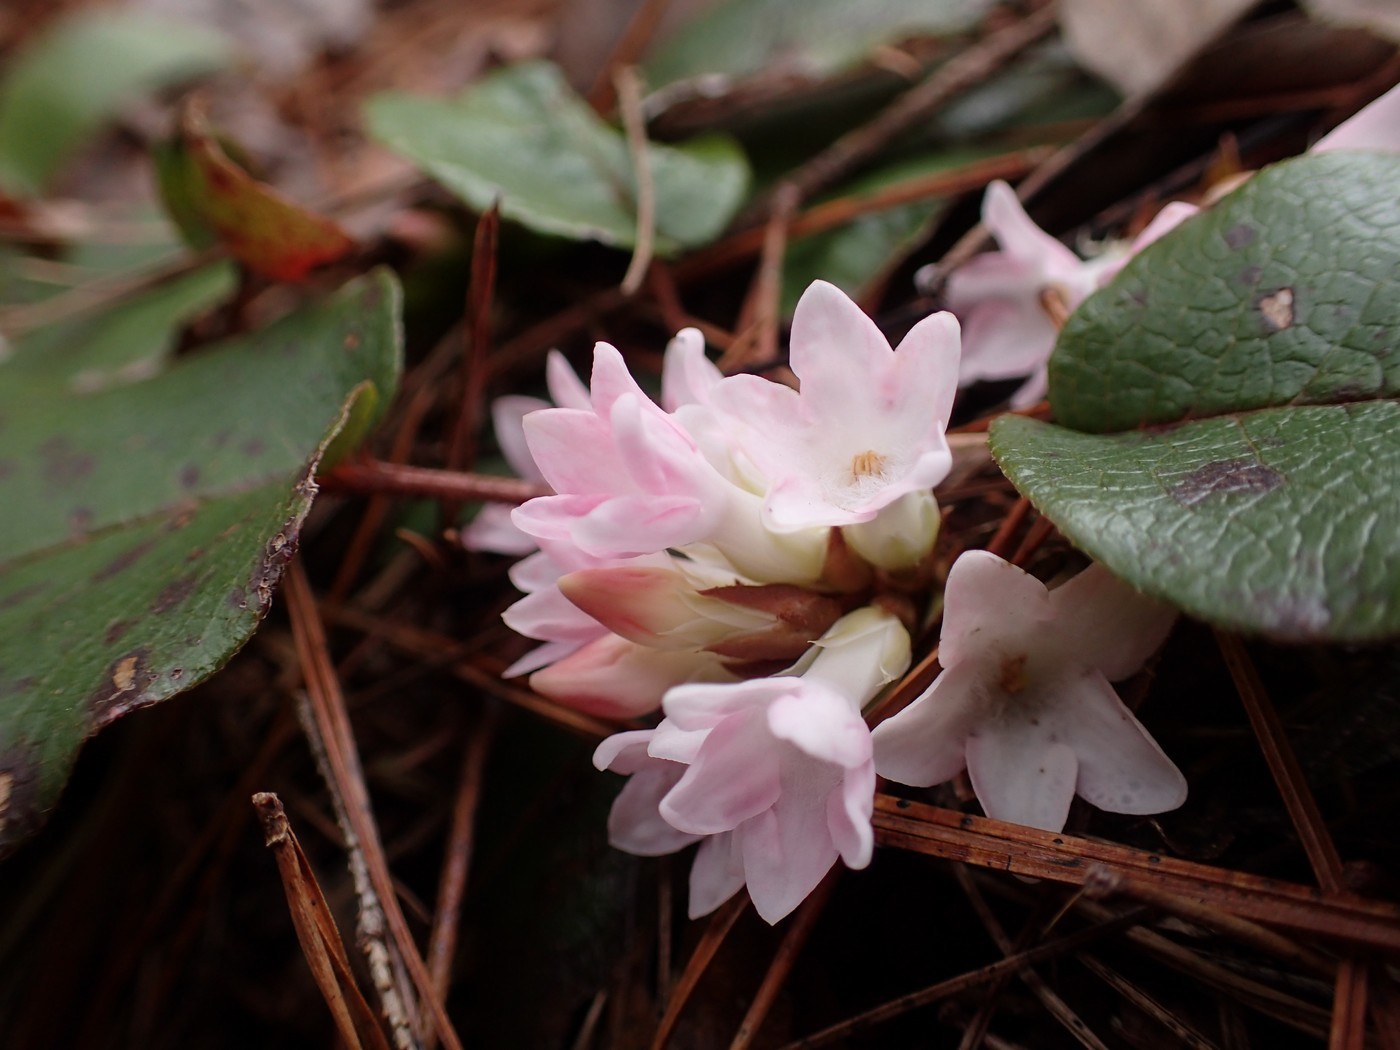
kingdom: Plantae
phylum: Tracheophyta
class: Magnoliopsida
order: Ericales
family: Ericaceae
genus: Epigaea
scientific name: Epigaea repens
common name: Gravelroot
